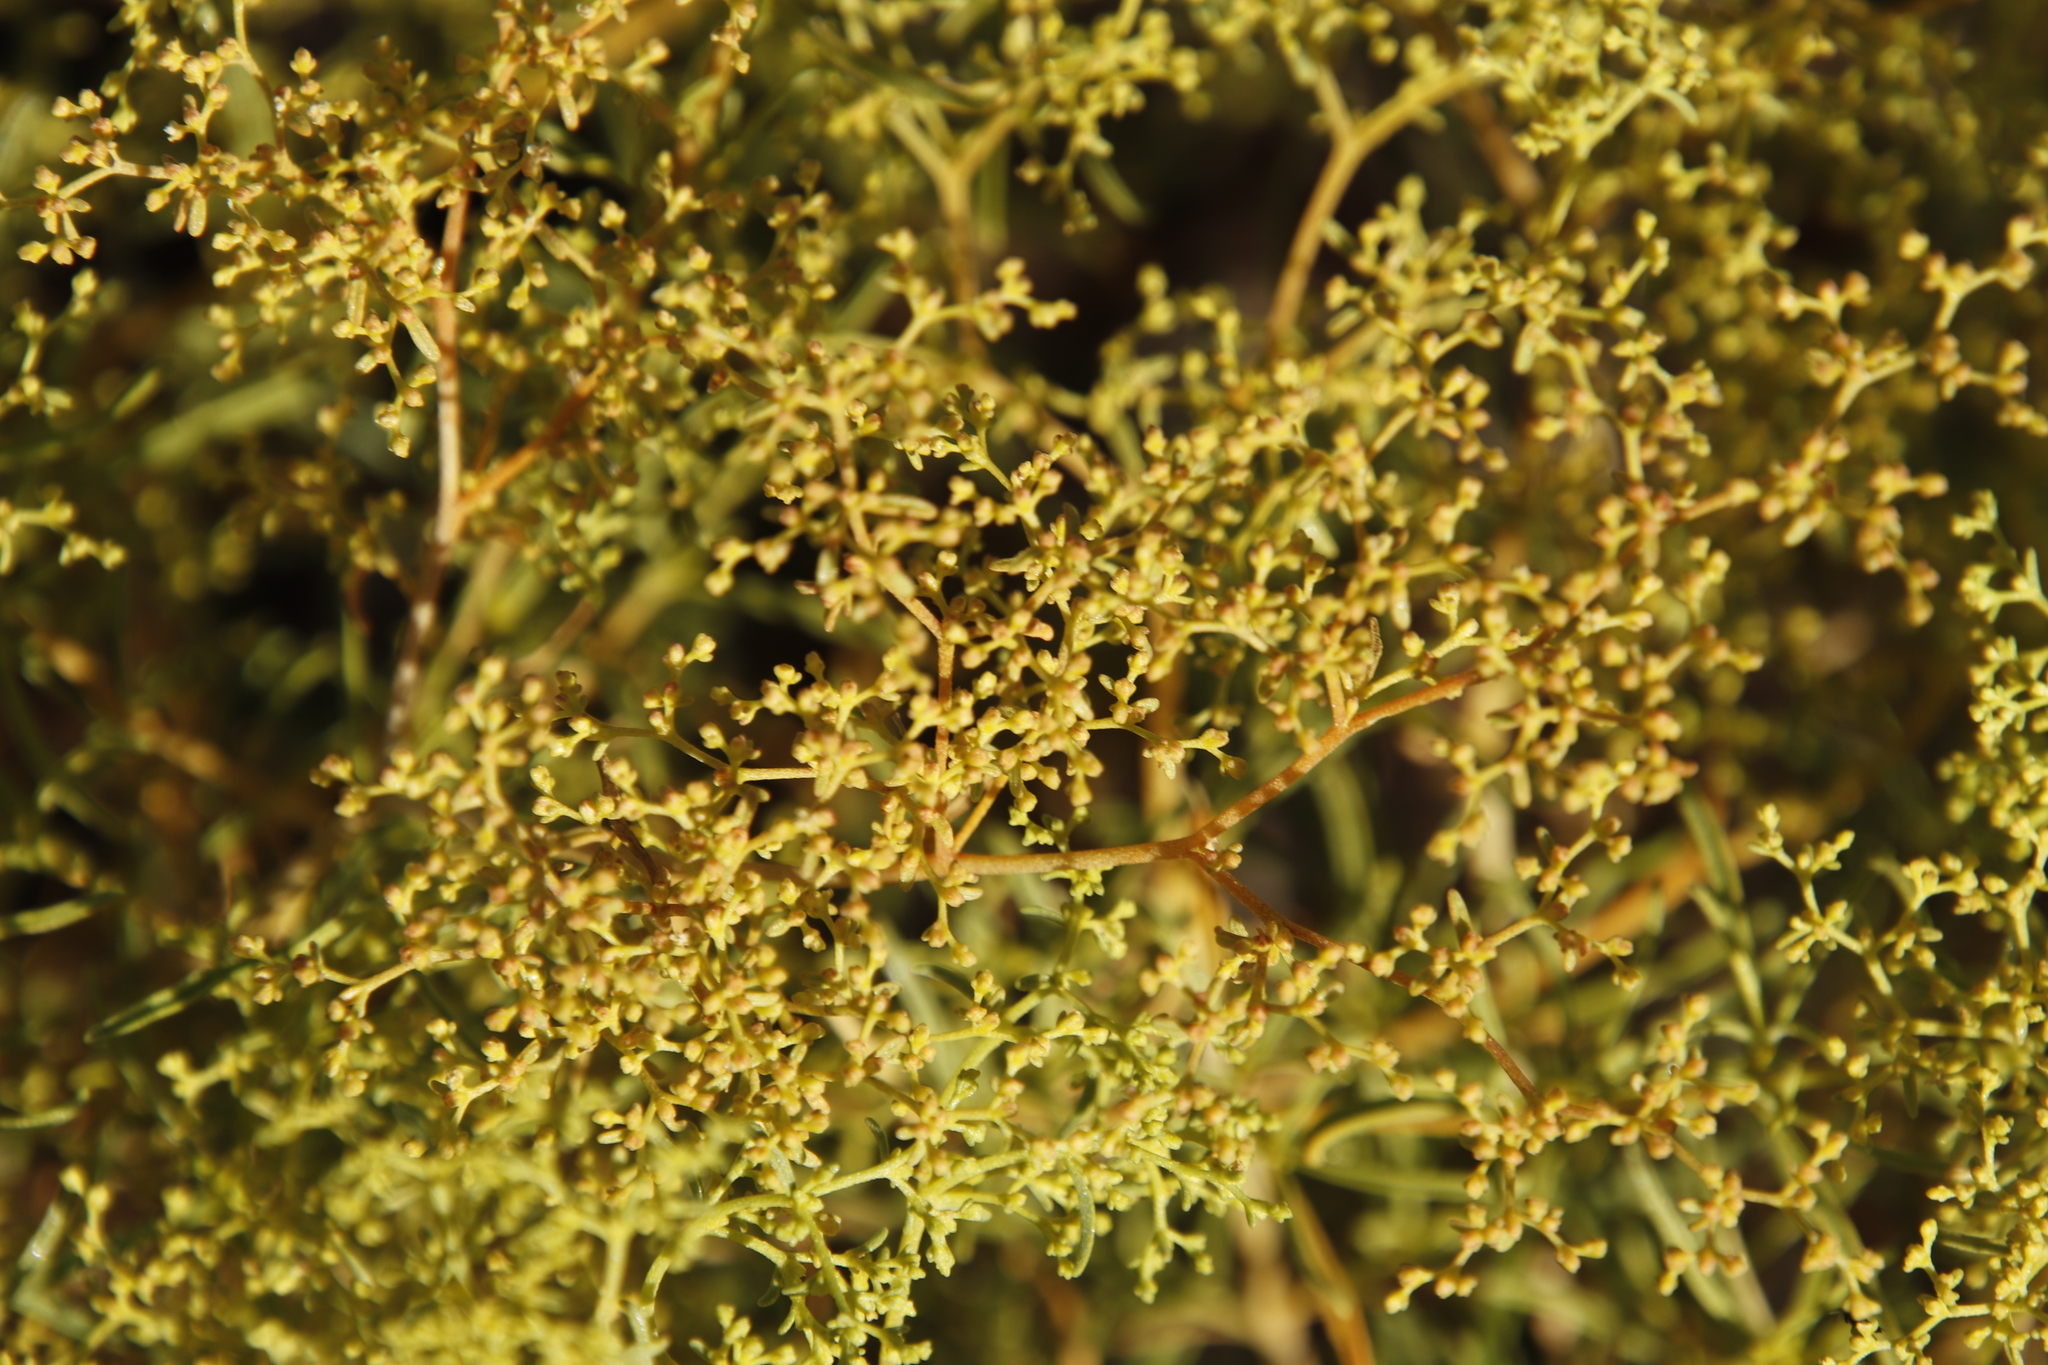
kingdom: Plantae
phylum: Tracheophyta
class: Magnoliopsida
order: Caryophyllales
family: Aizoaceae
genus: Aizoon
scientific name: Aizoon africanum
